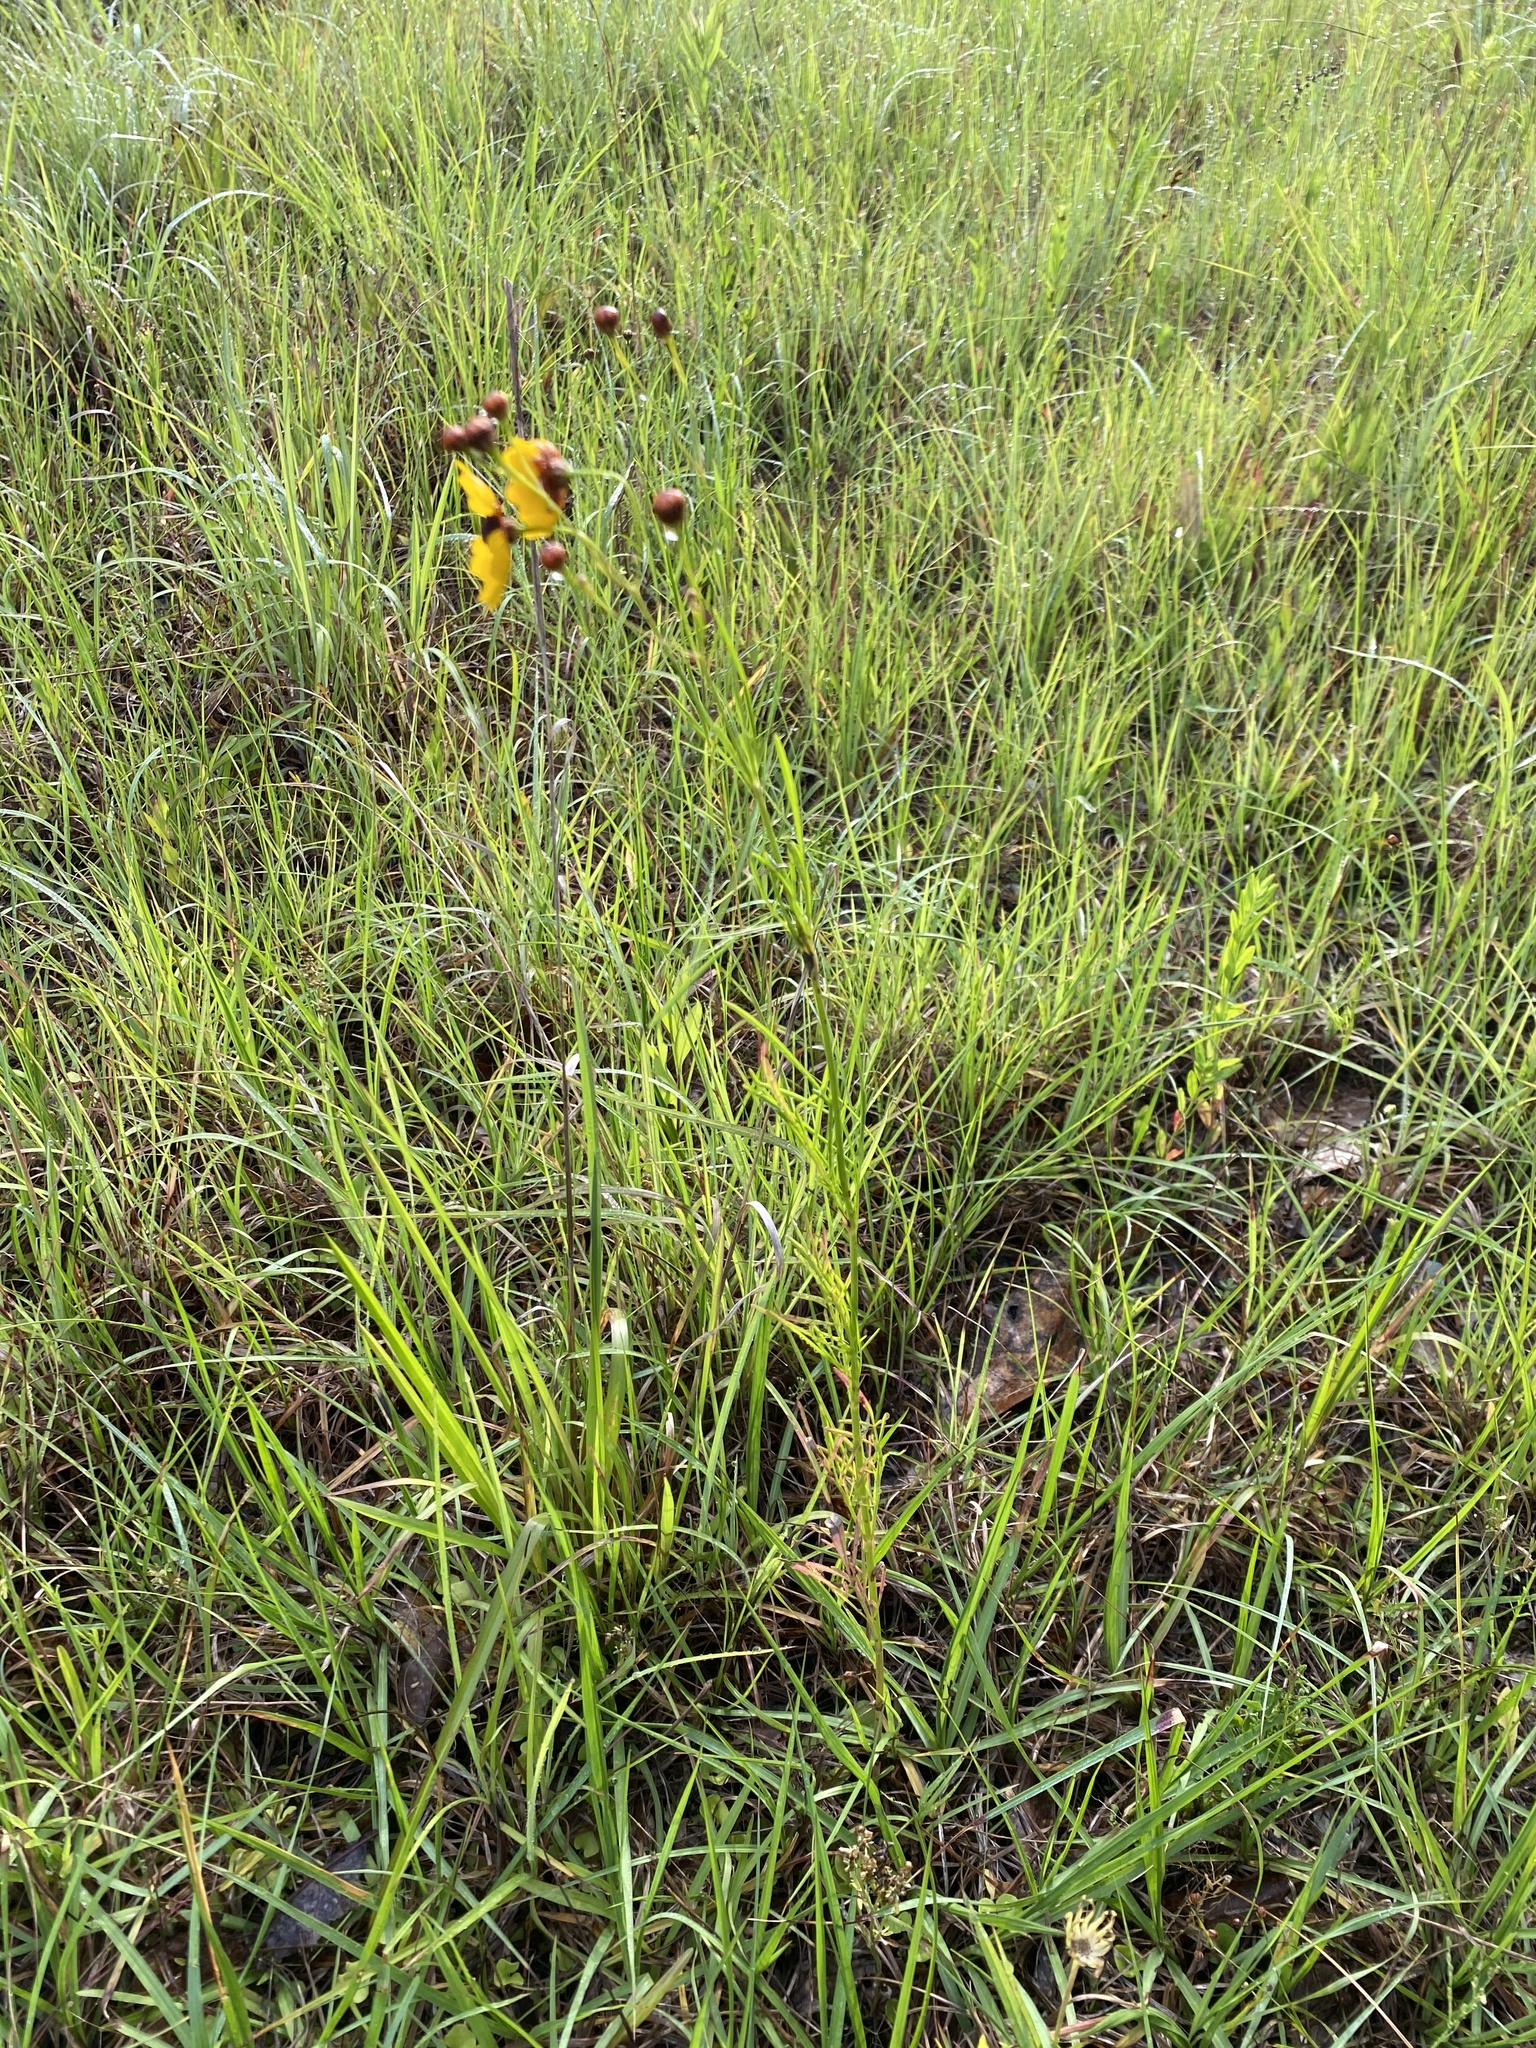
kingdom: Plantae
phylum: Tracheophyta
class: Magnoliopsida
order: Asterales
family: Asteraceae
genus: Coreopsis
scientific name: Coreopsis tinctoria
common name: Garden tickseed
